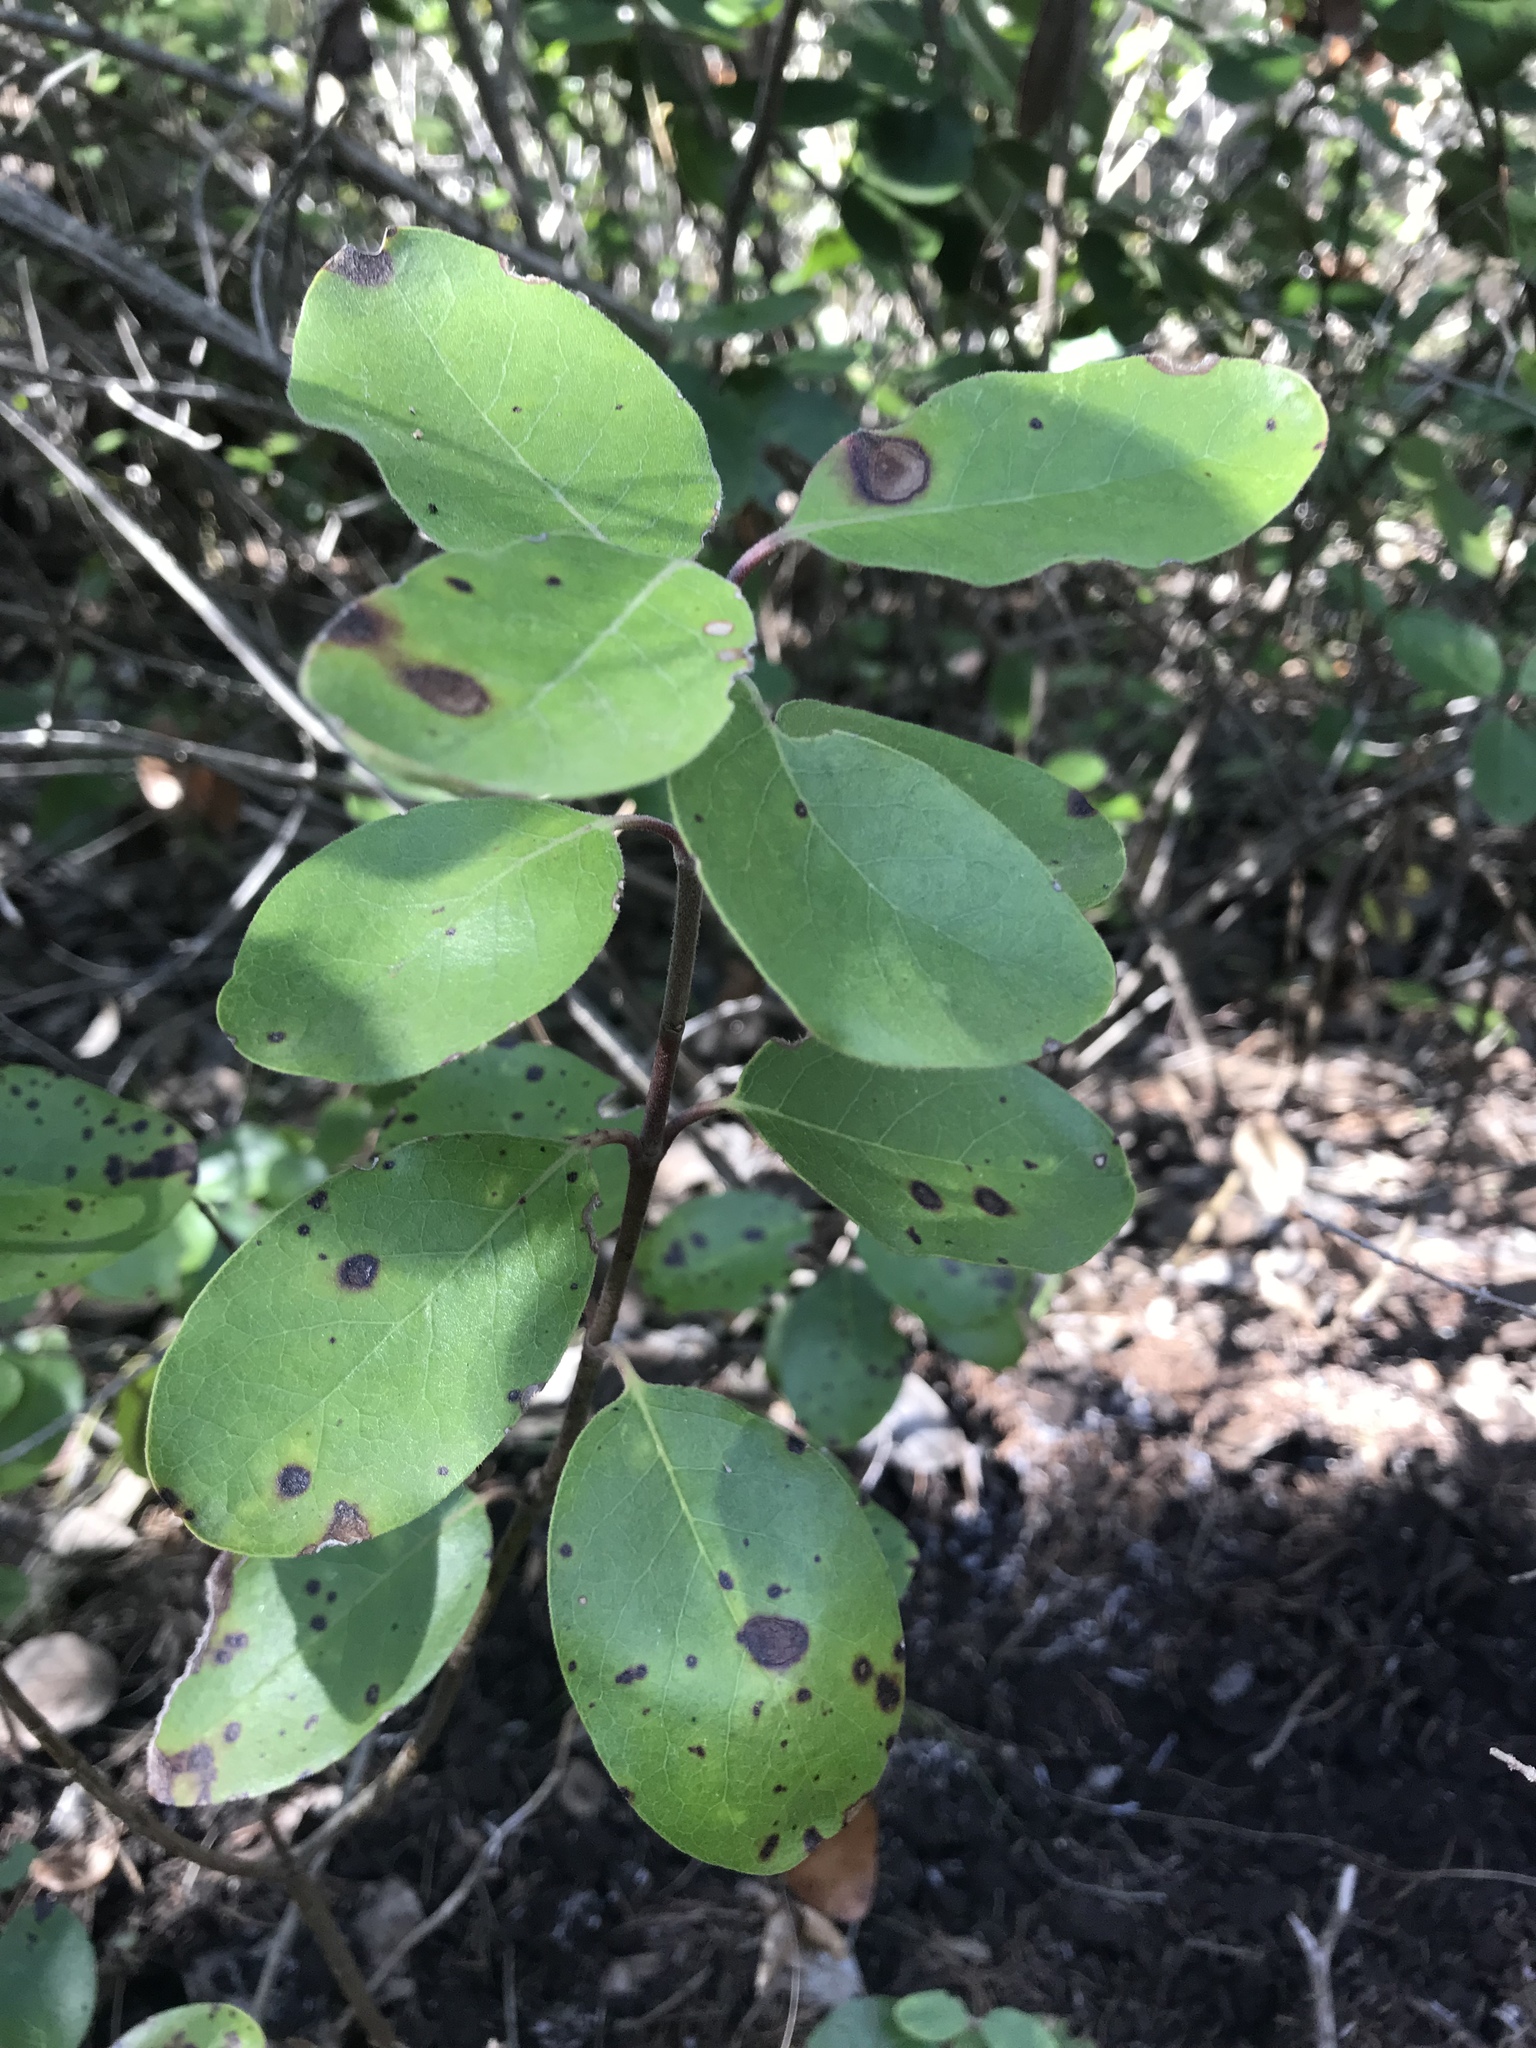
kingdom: Plantae
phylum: Tracheophyta
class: Magnoliopsida
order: Garryales
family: Garryaceae
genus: Garrya
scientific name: Garrya lindheimeri
